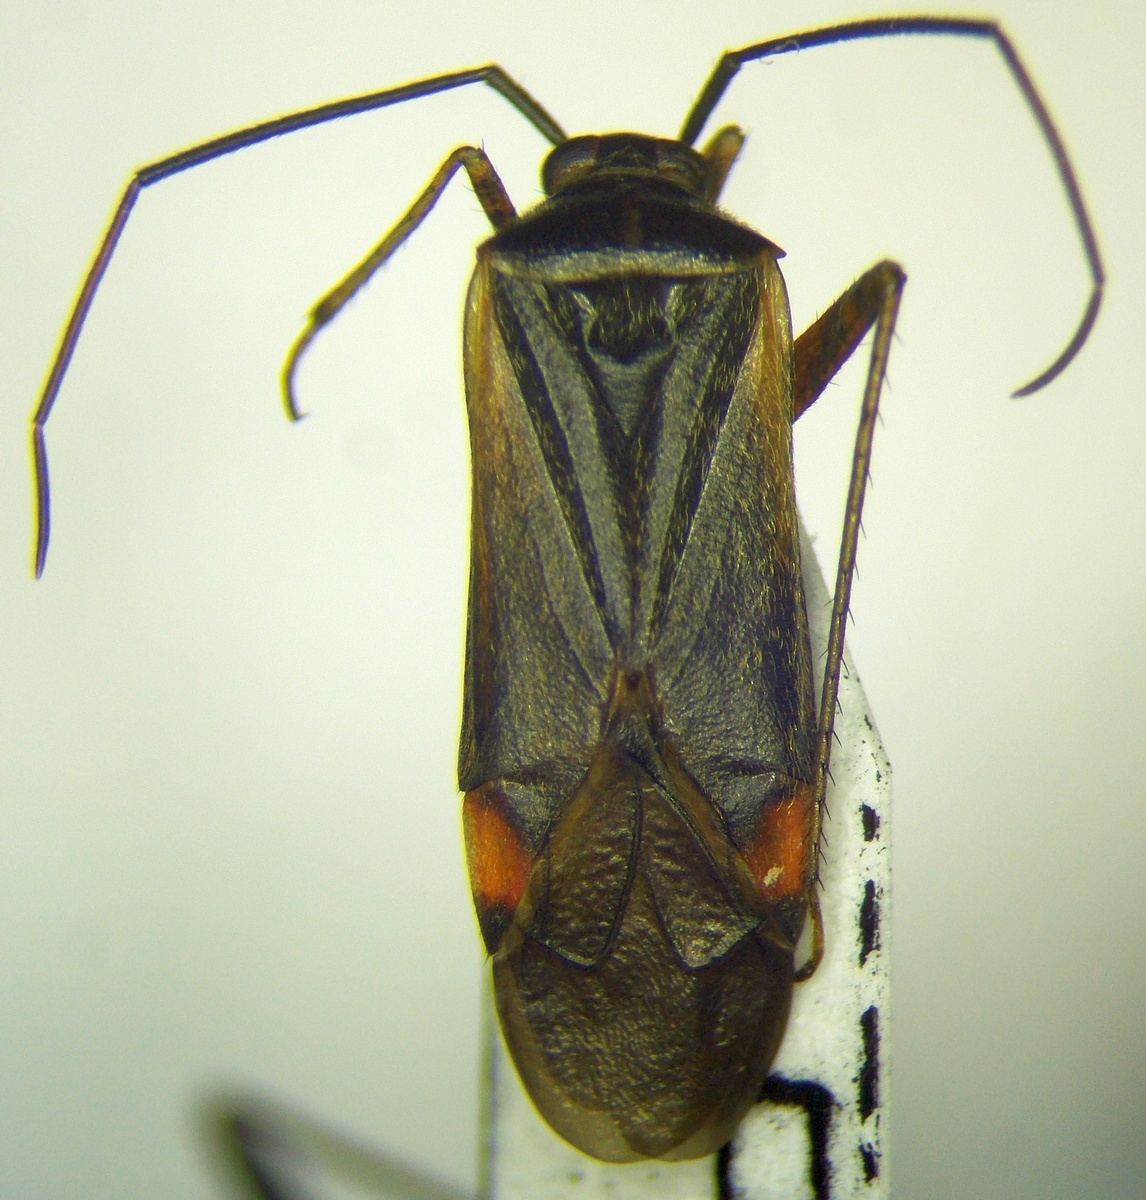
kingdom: Animalia
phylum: Arthropoda
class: Insecta
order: Hemiptera
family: Miridae
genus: Adelphocoris
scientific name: Adelphocoris seticornis
